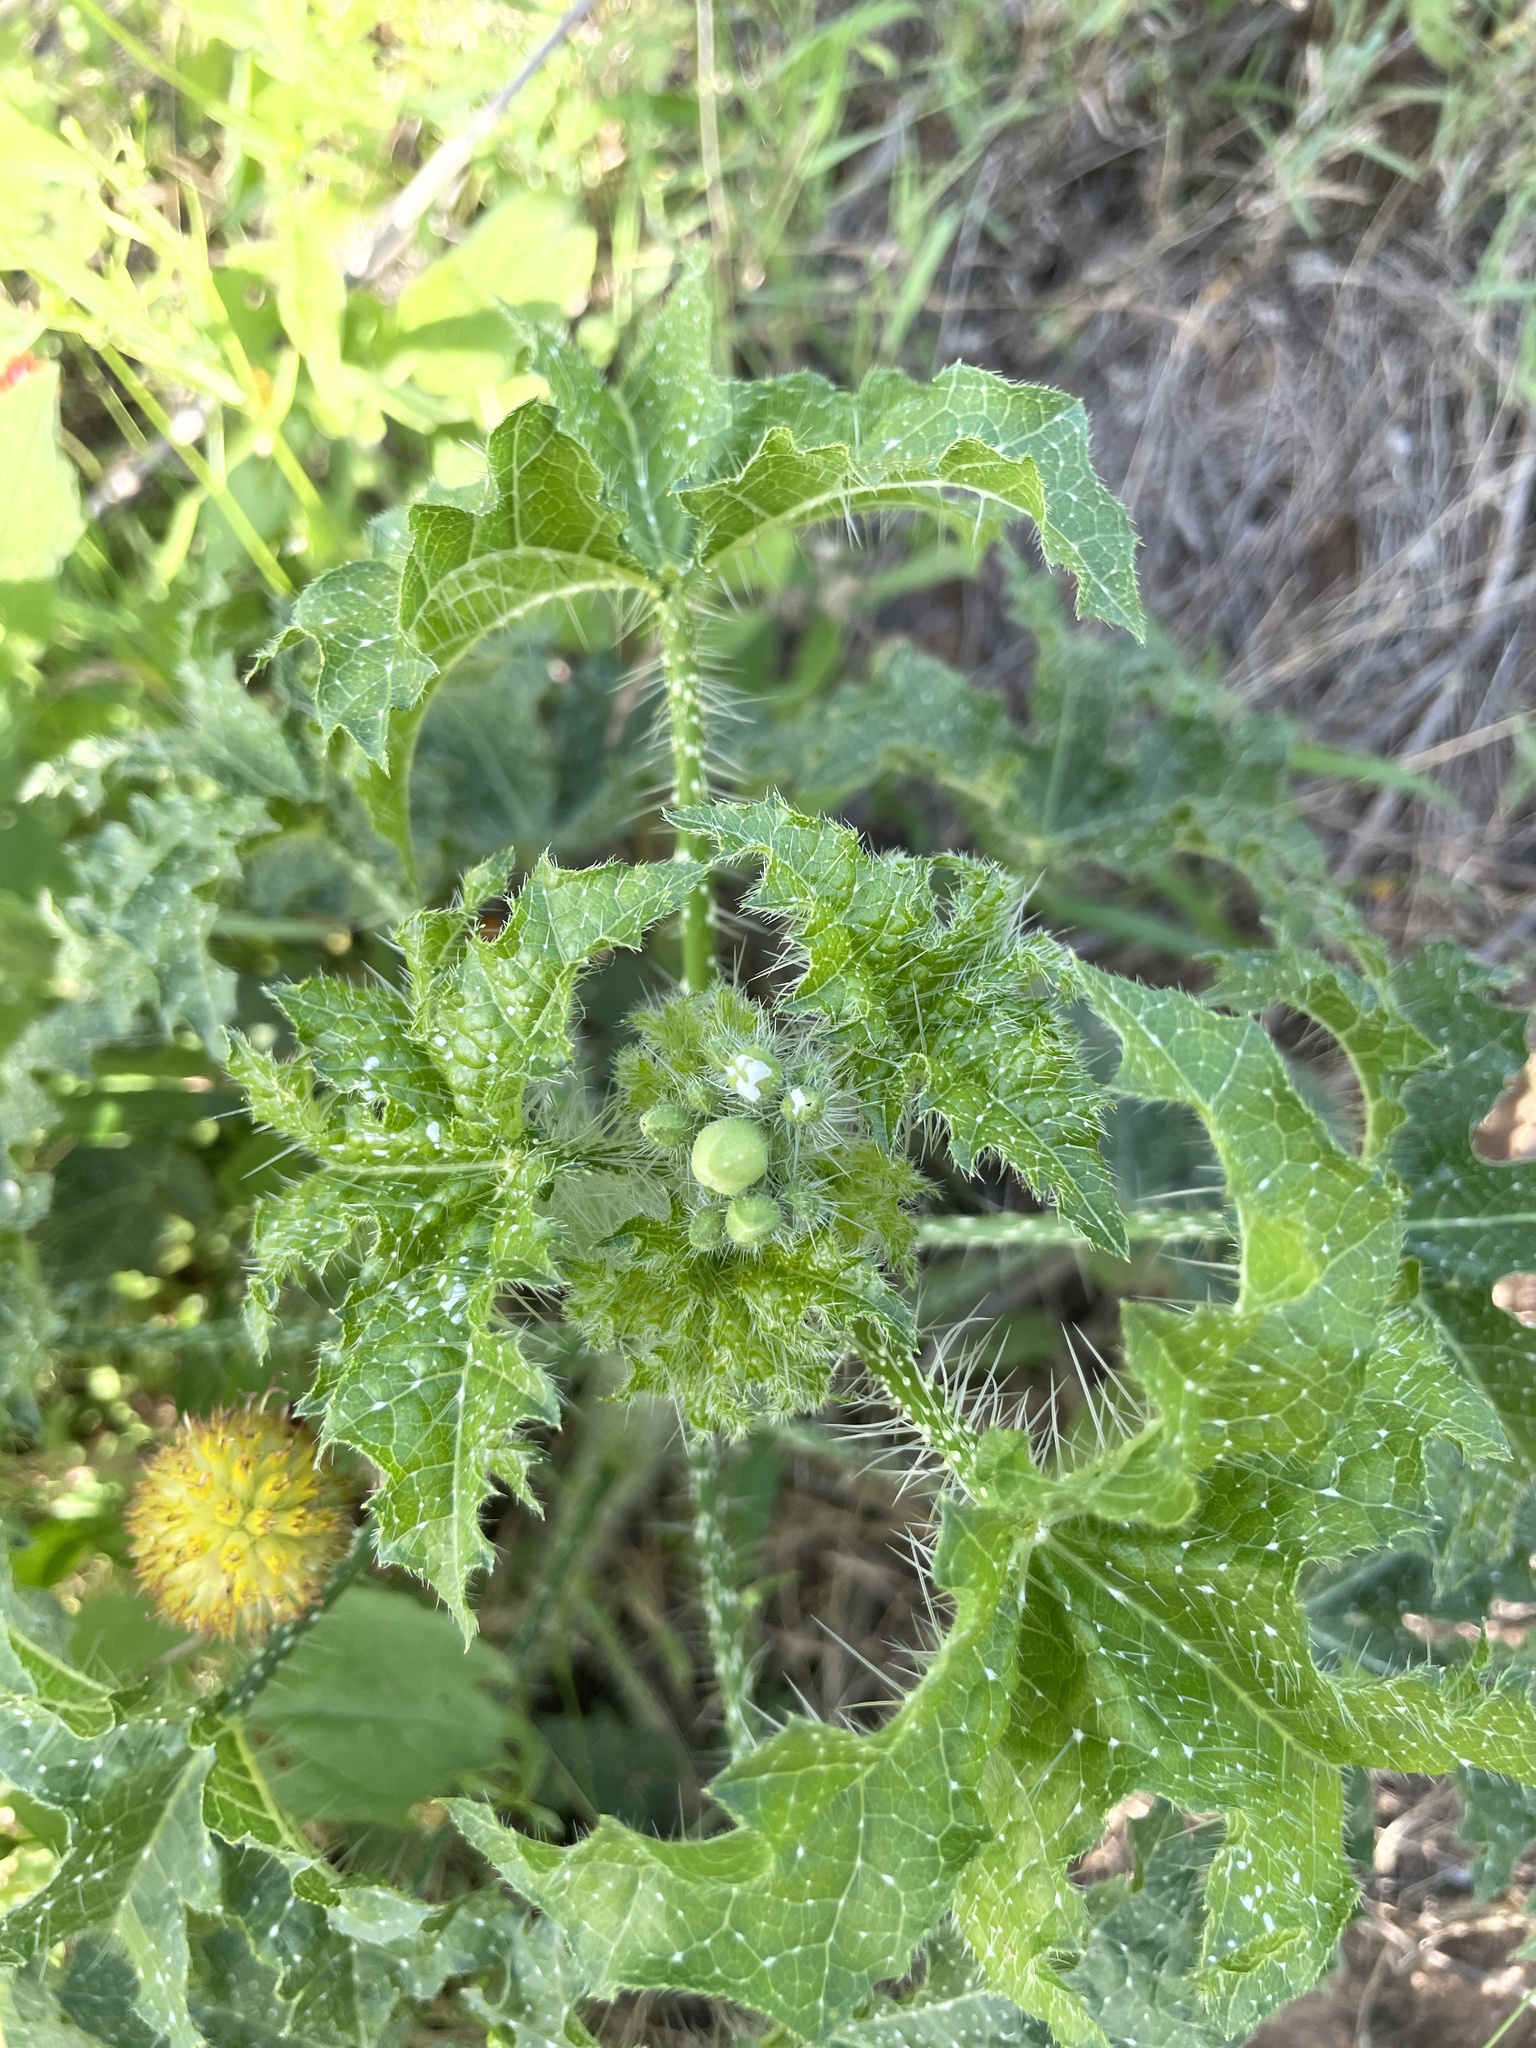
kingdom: Plantae
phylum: Tracheophyta
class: Magnoliopsida
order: Malpighiales
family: Euphorbiaceae
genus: Cnidoscolus
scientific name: Cnidoscolus texanus
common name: Texas bull-nettle
